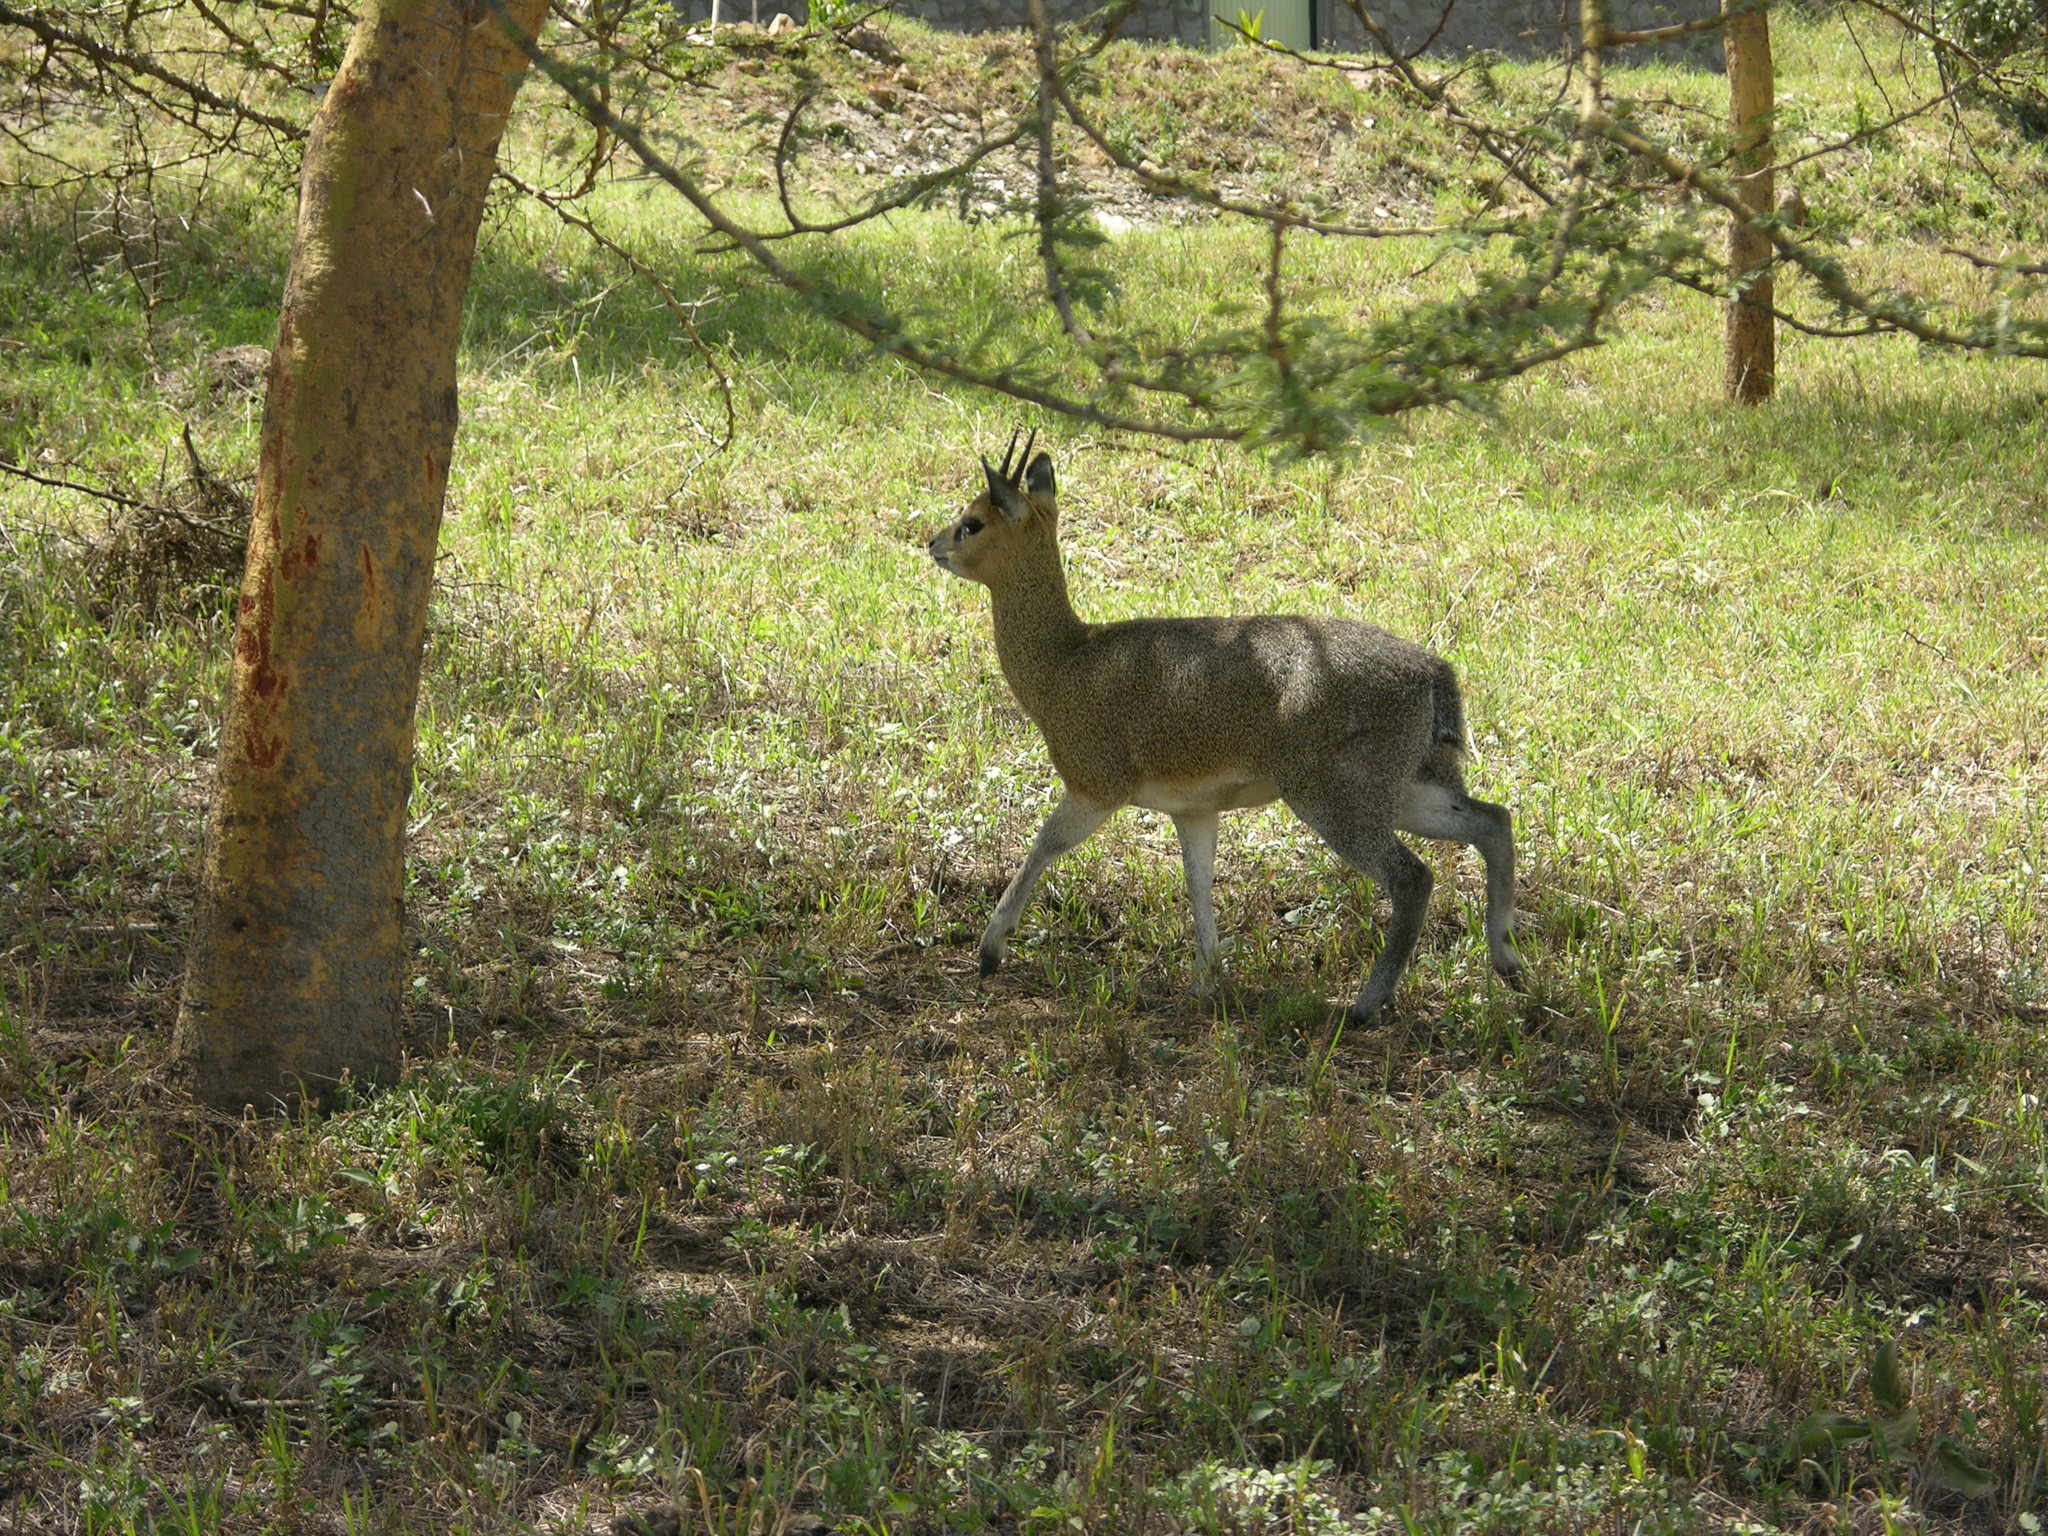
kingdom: Animalia
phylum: Chordata
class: Mammalia
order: Artiodactyla
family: Bovidae
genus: Oreotragus
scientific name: Oreotragus oreotragus
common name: Klipspringer
